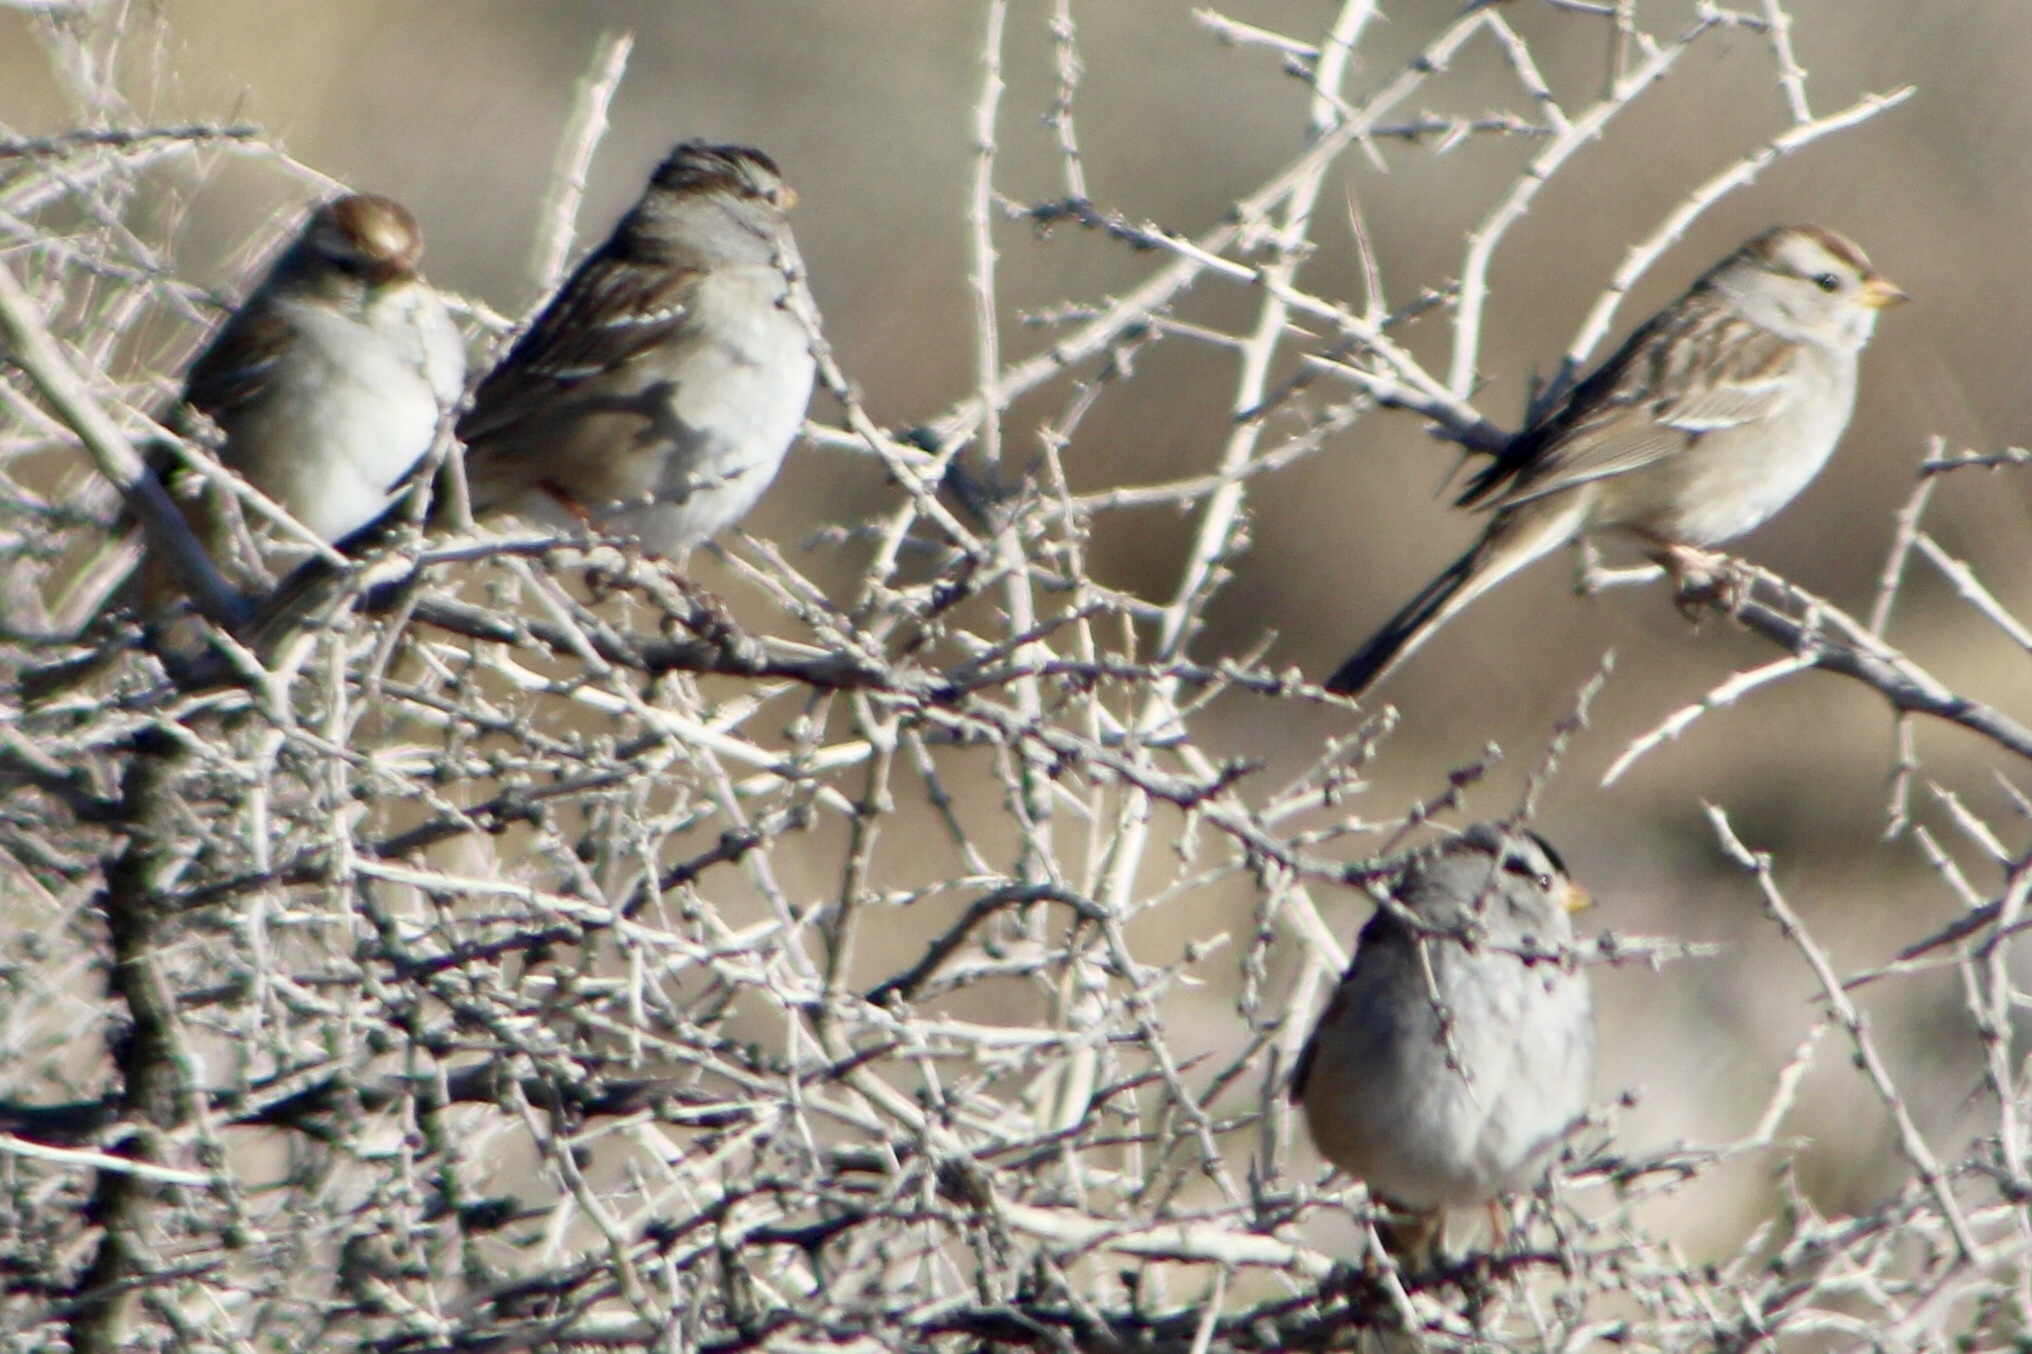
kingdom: Animalia
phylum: Chordata
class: Aves
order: Passeriformes
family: Passerellidae
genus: Zonotrichia
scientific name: Zonotrichia leucophrys
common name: White-crowned sparrow
